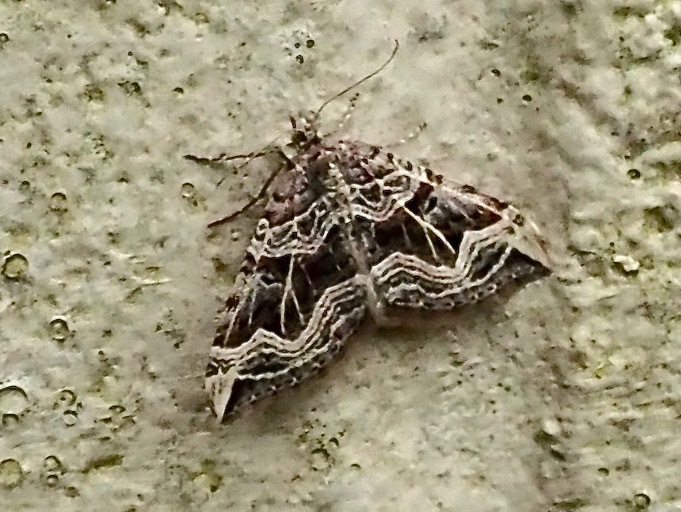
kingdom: Animalia
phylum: Arthropoda
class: Insecta
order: Lepidoptera
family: Geometridae
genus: Xanthorhoe
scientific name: Xanthorhoe semifissata
